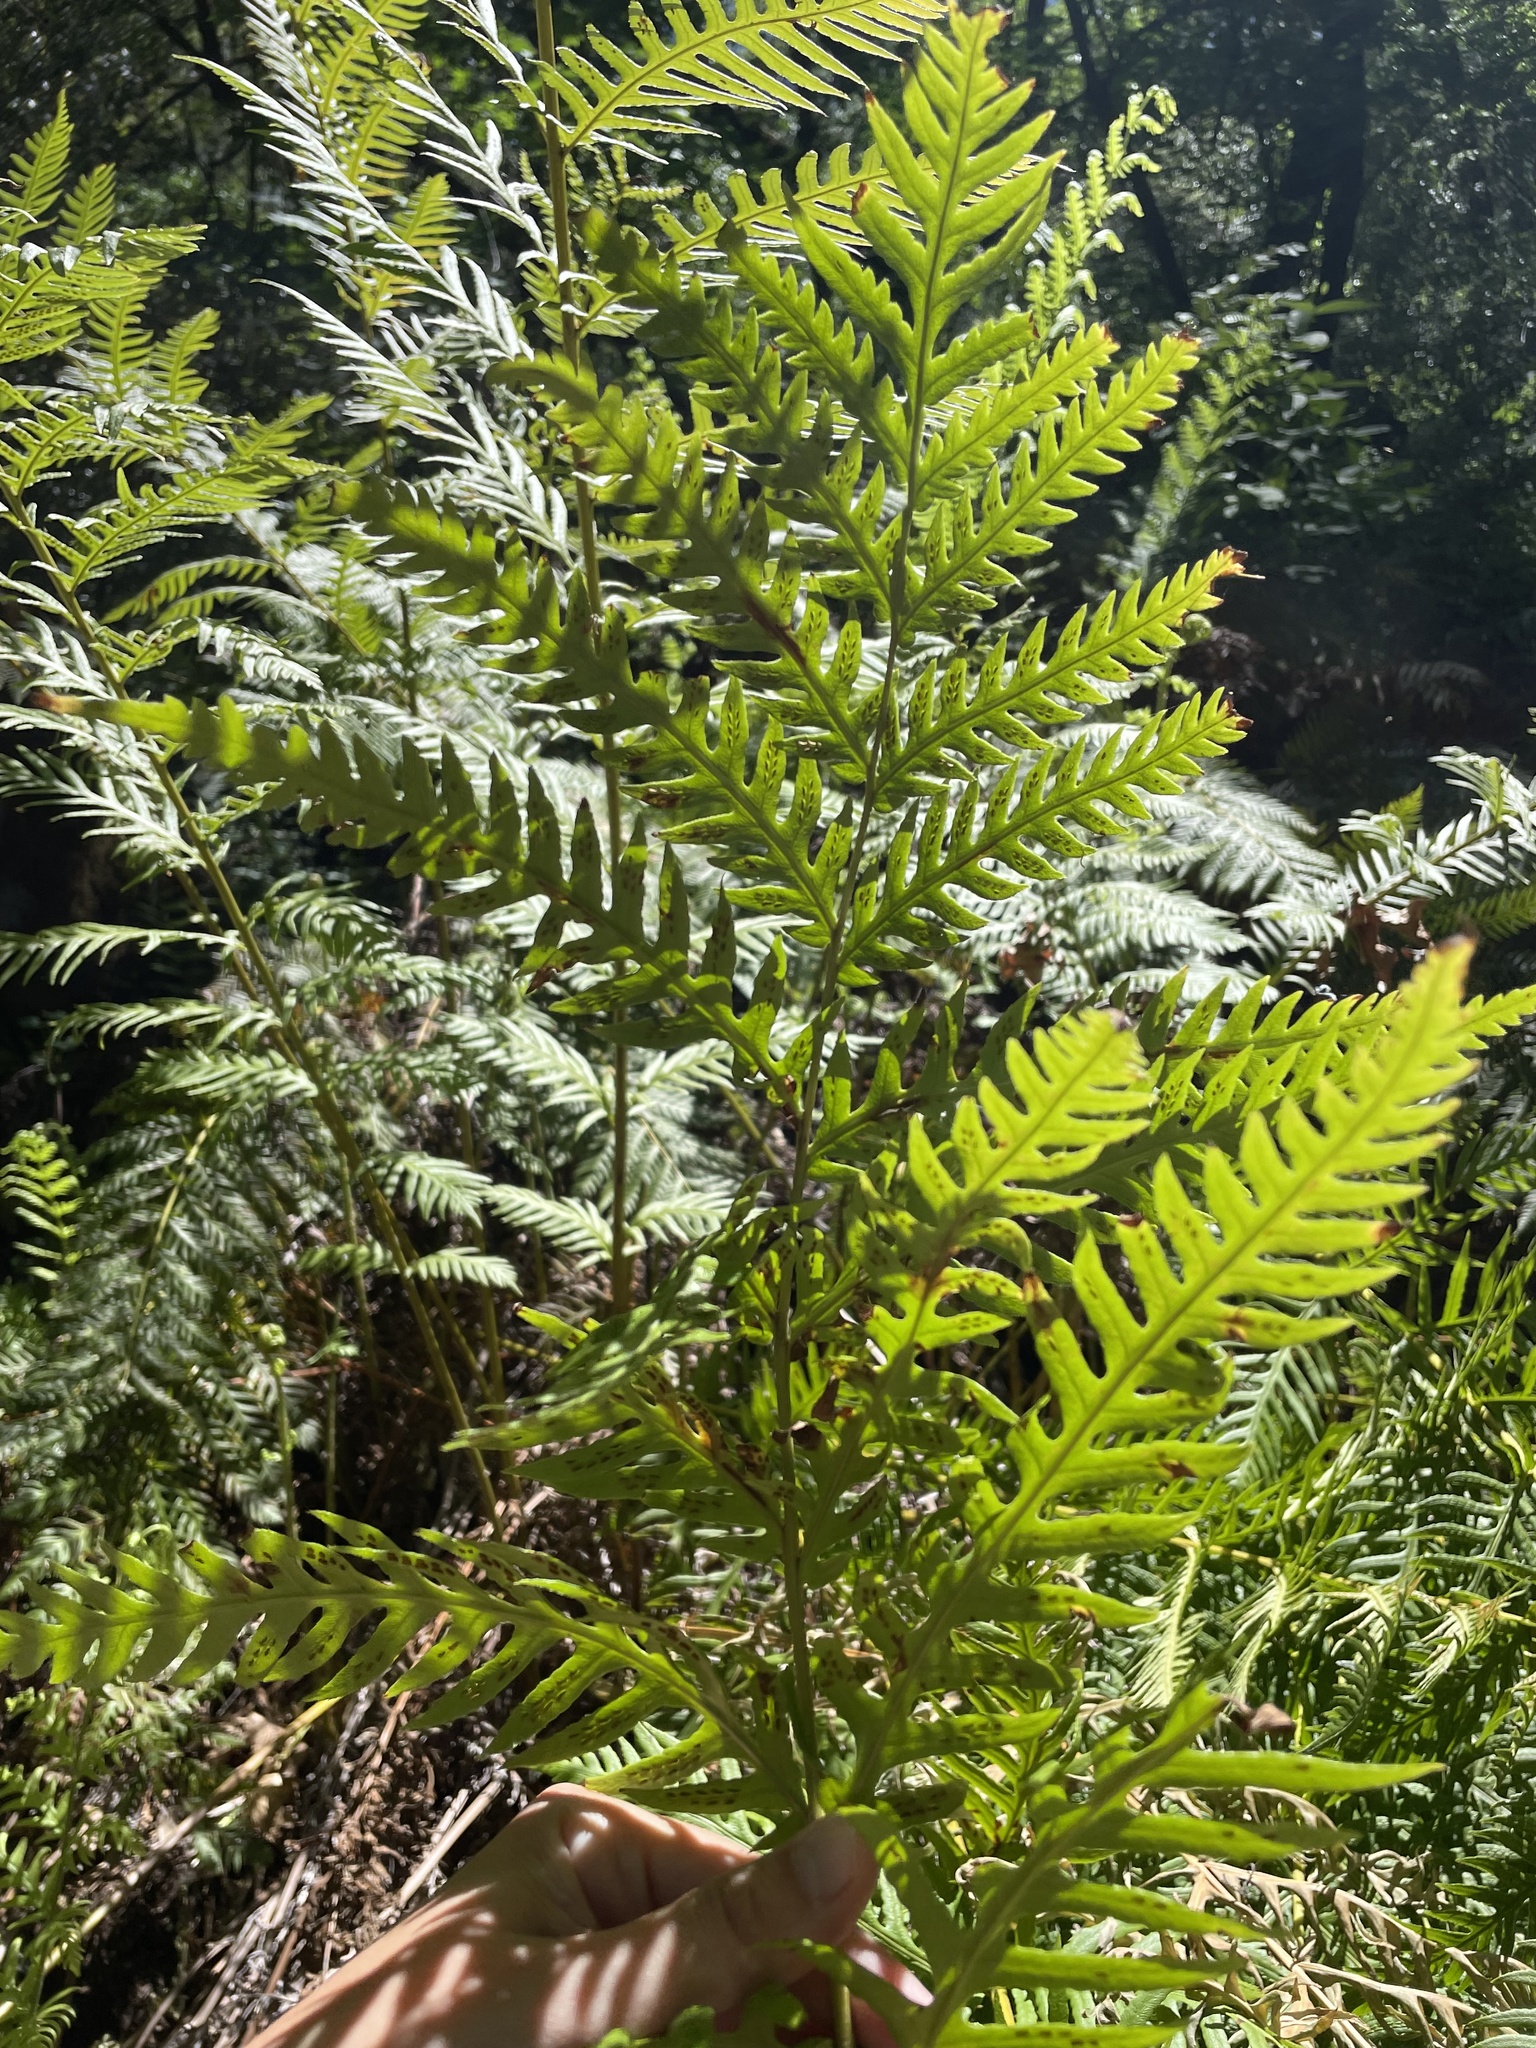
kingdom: Plantae
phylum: Tracheophyta
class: Polypodiopsida
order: Polypodiales
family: Blechnaceae
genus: Woodwardia
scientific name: Woodwardia fimbriata
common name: Giant chain fern
